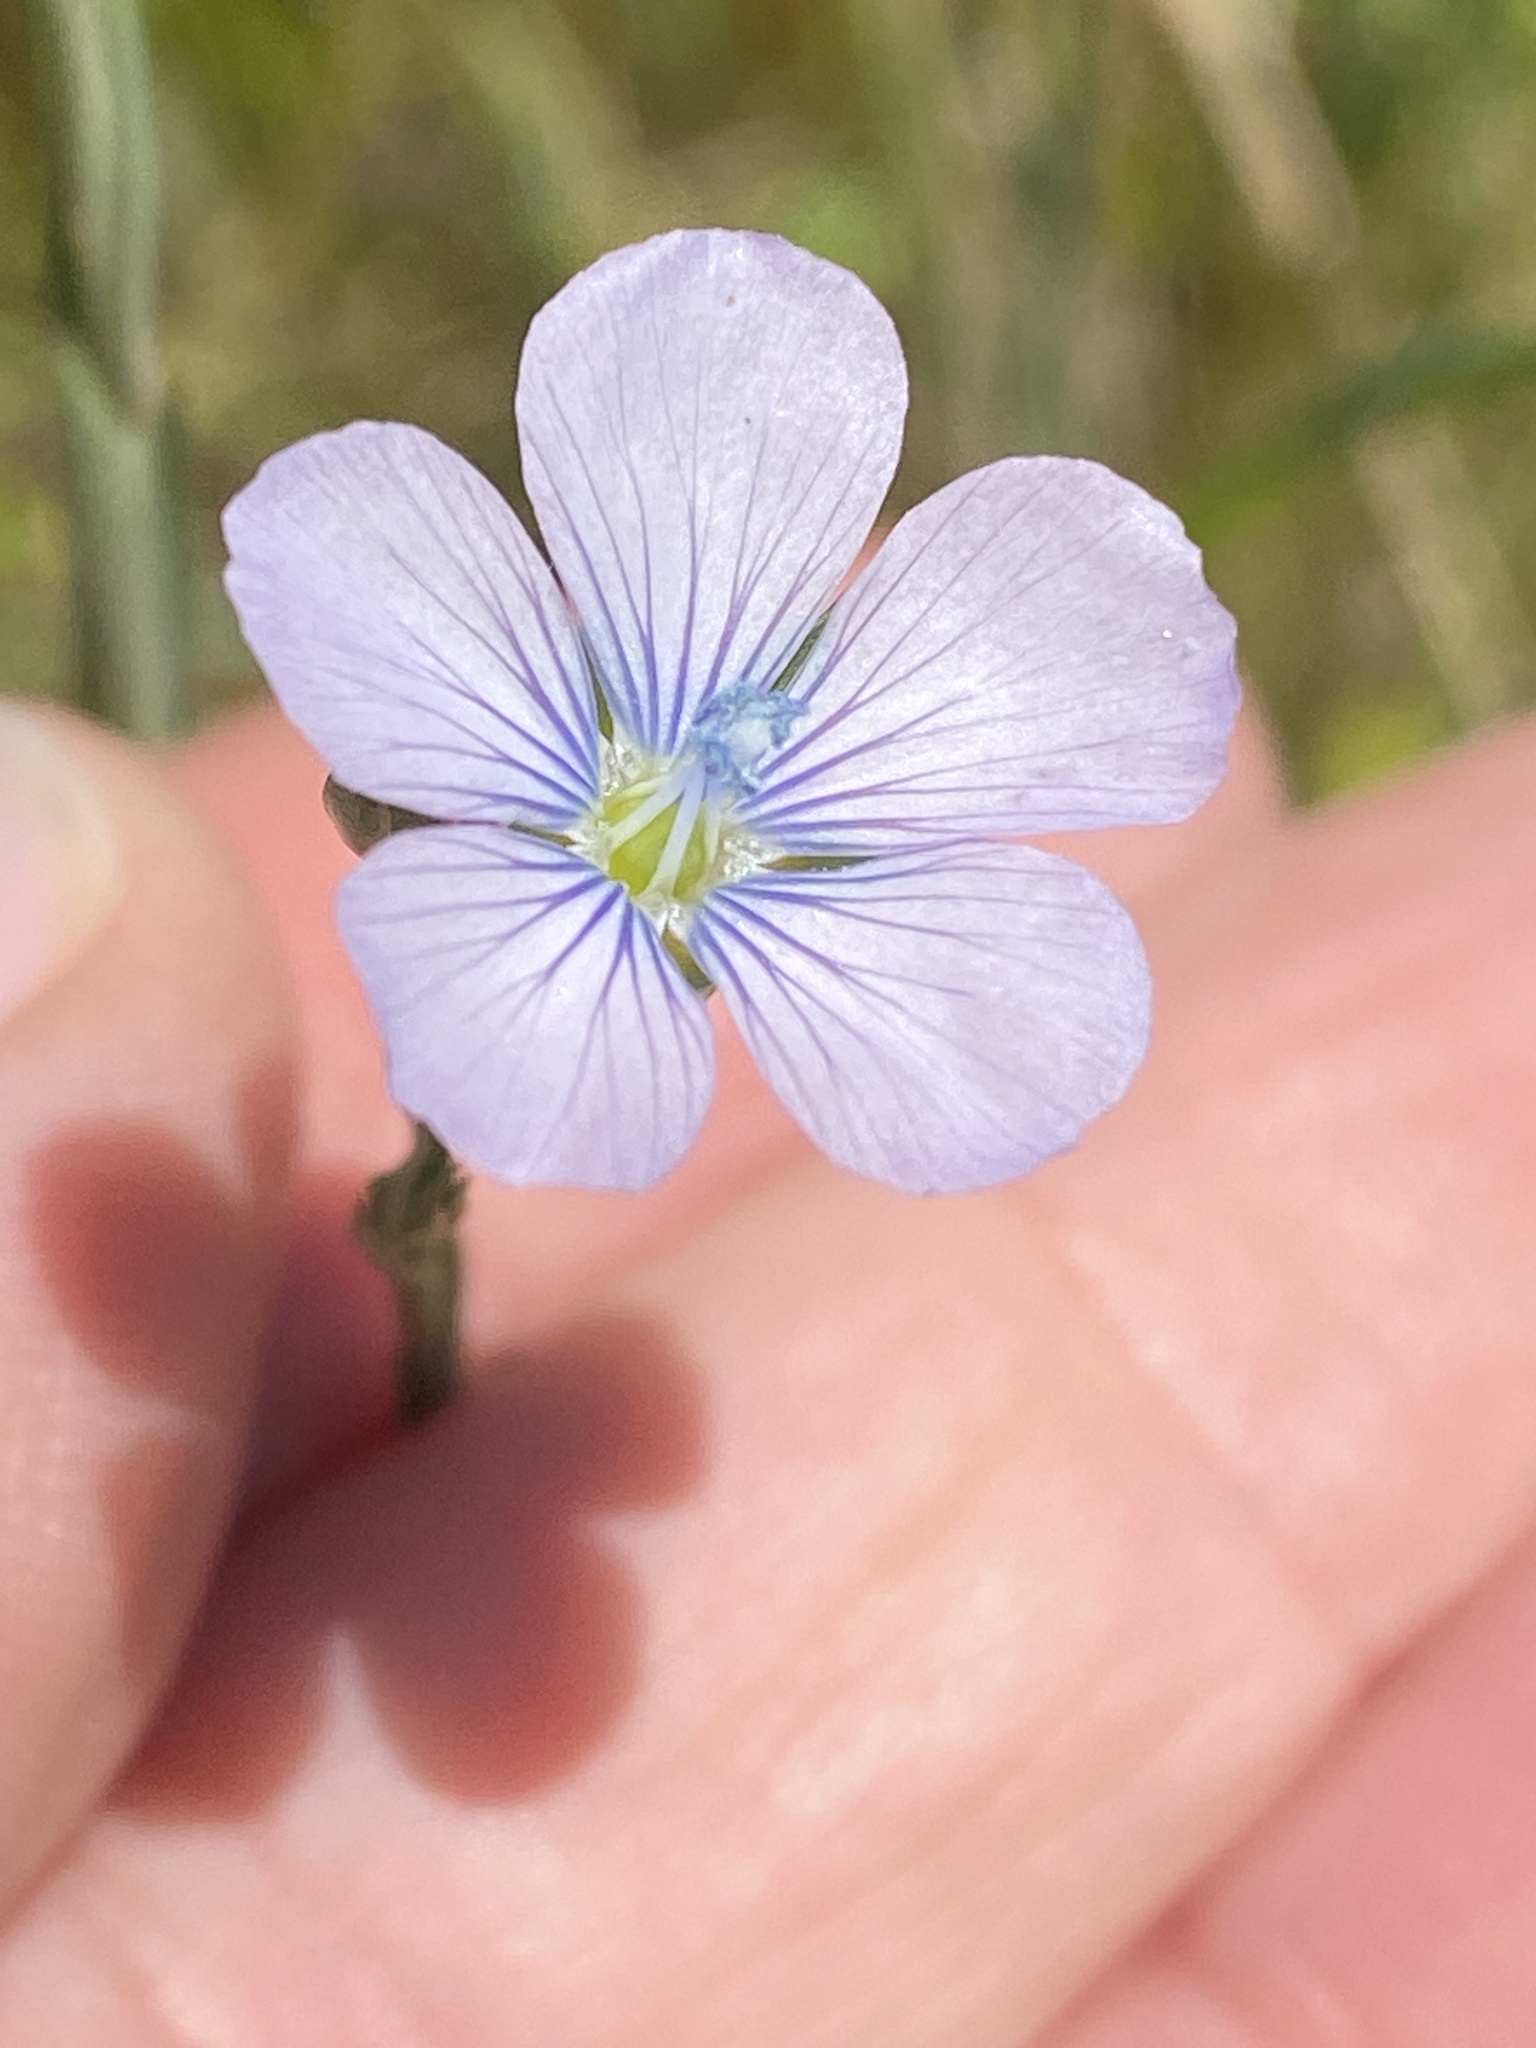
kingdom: Plantae
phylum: Tracheophyta
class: Magnoliopsida
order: Malpighiales
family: Linaceae
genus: Linum
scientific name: Linum bienne
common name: Pale flax
